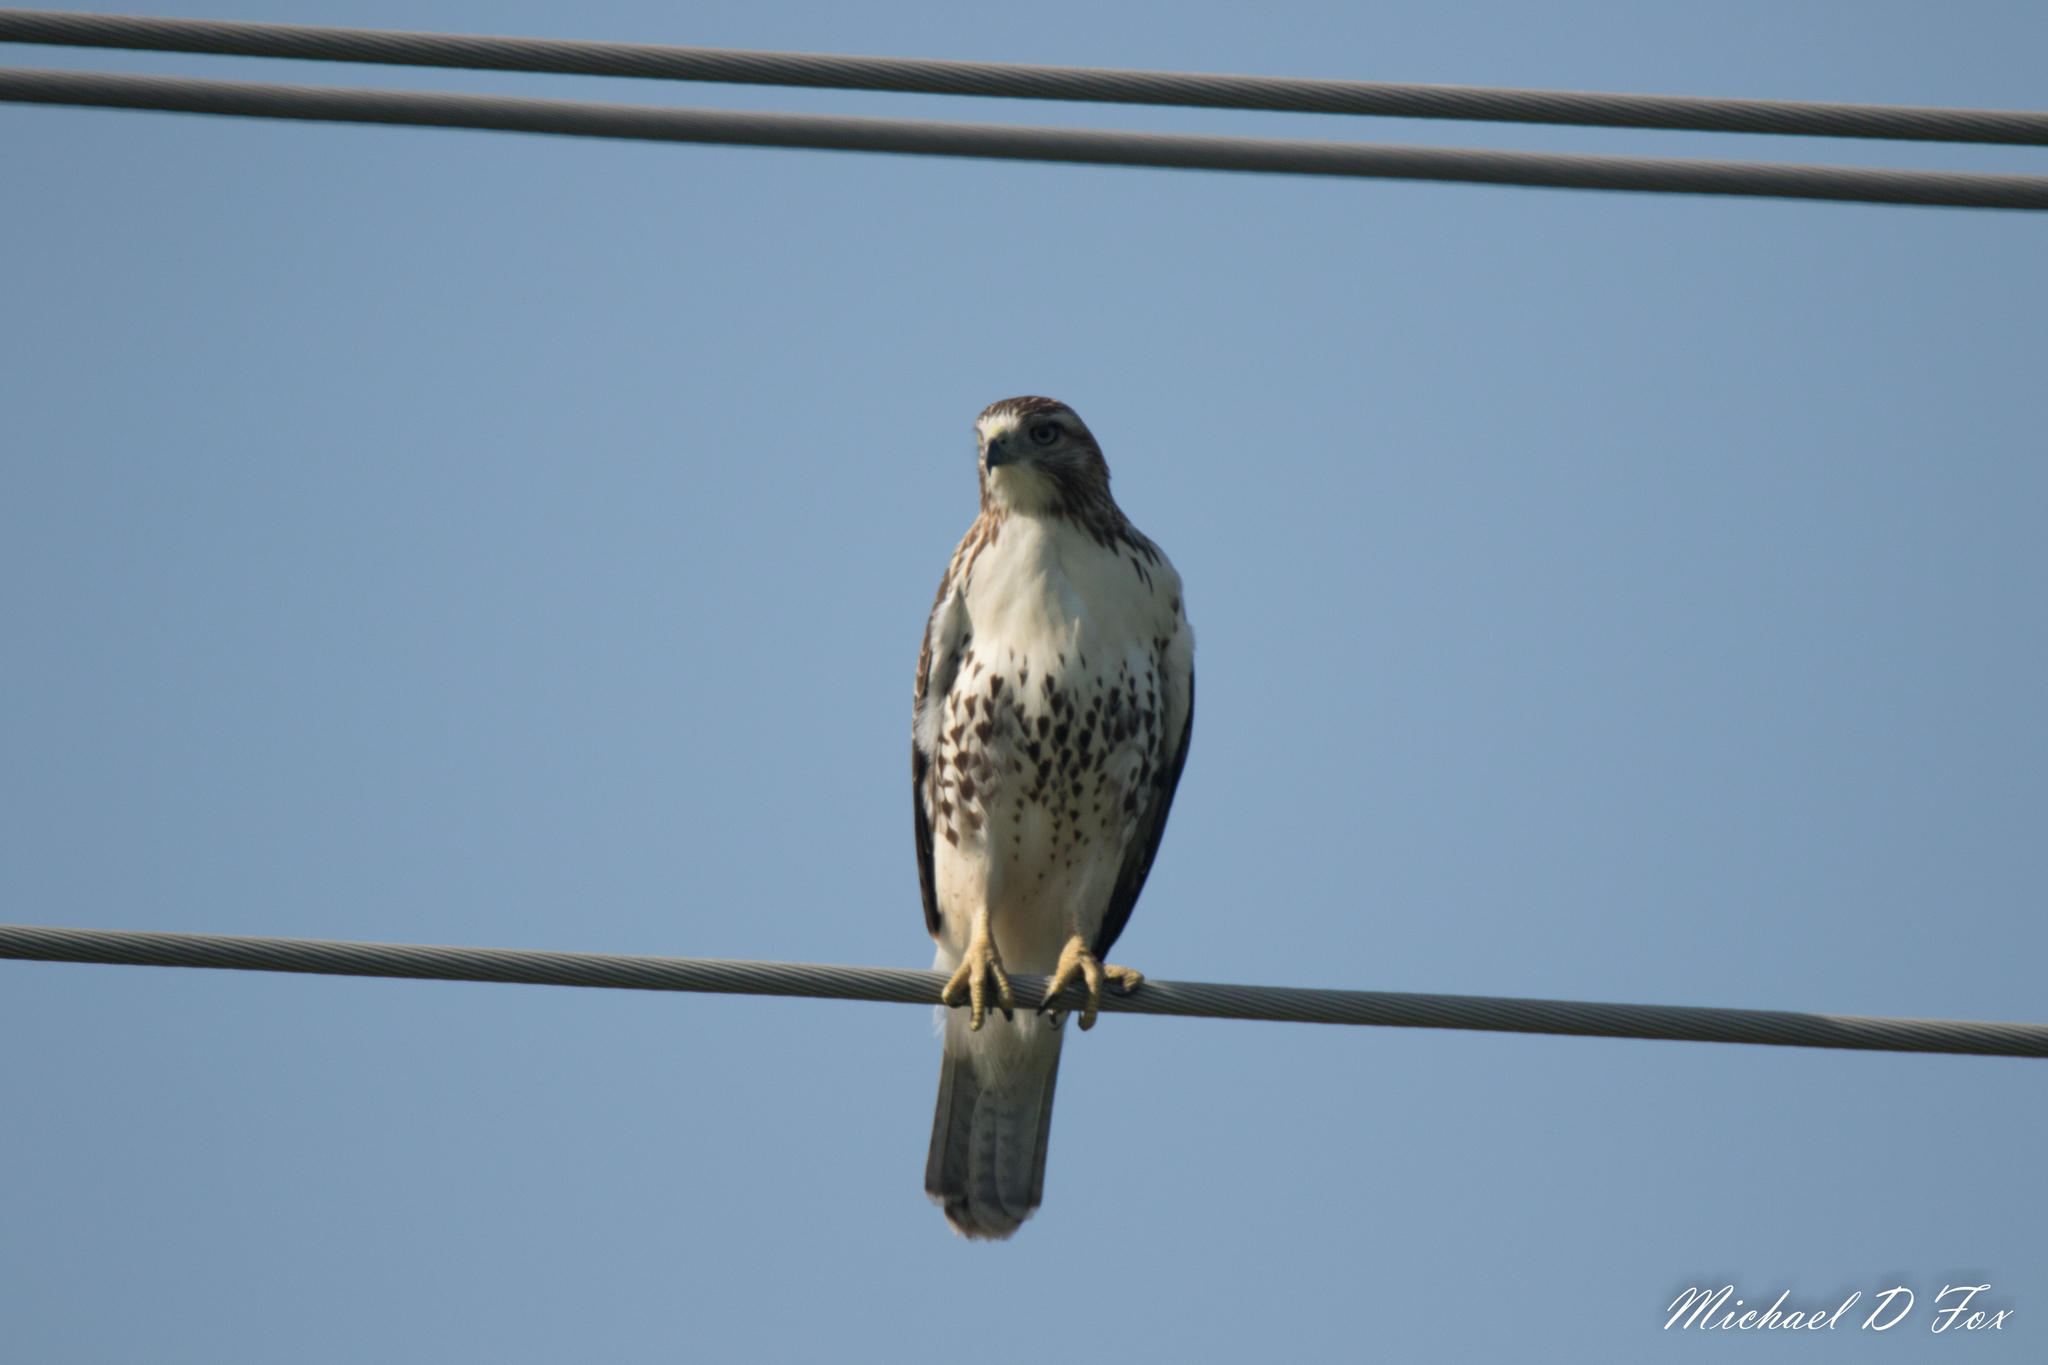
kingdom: Animalia
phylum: Chordata
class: Aves
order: Accipitriformes
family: Accipitridae
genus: Buteo
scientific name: Buteo jamaicensis
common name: Red-tailed hawk
